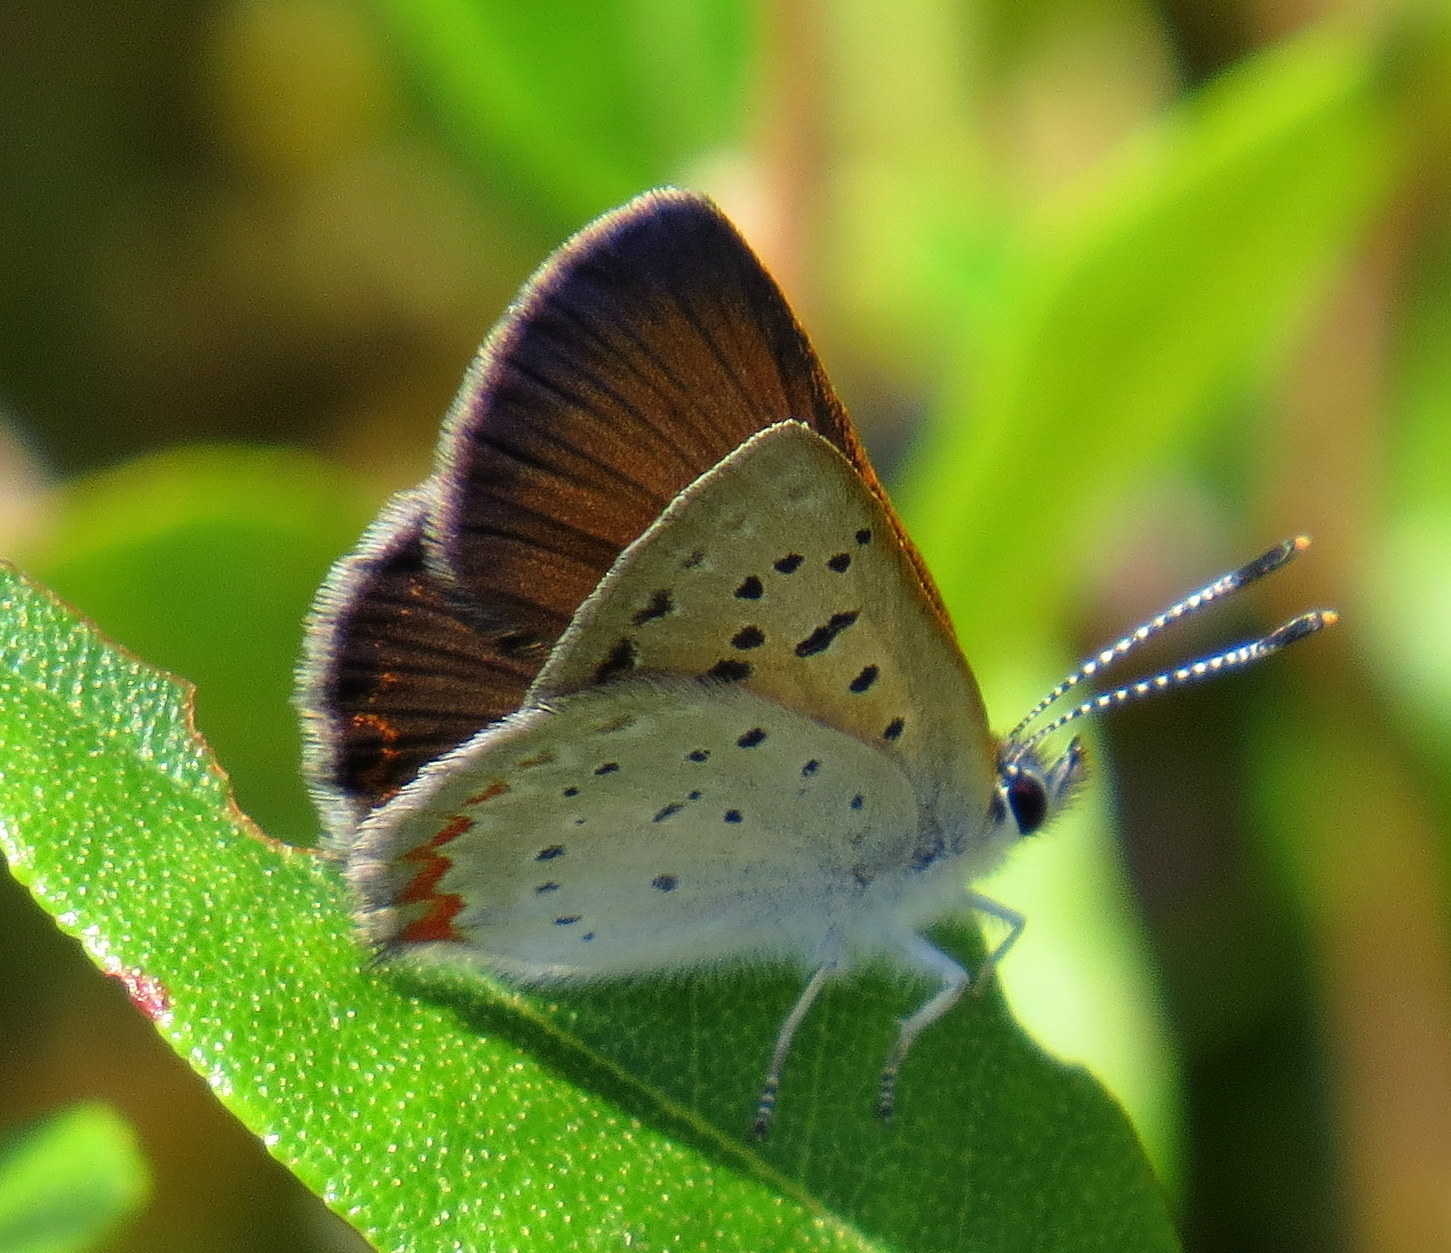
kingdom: Animalia
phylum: Arthropoda
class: Insecta
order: Lepidoptera
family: Lycaenidae
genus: Tharsalea
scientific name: Tharsalea epixanthe
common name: Bog copper
